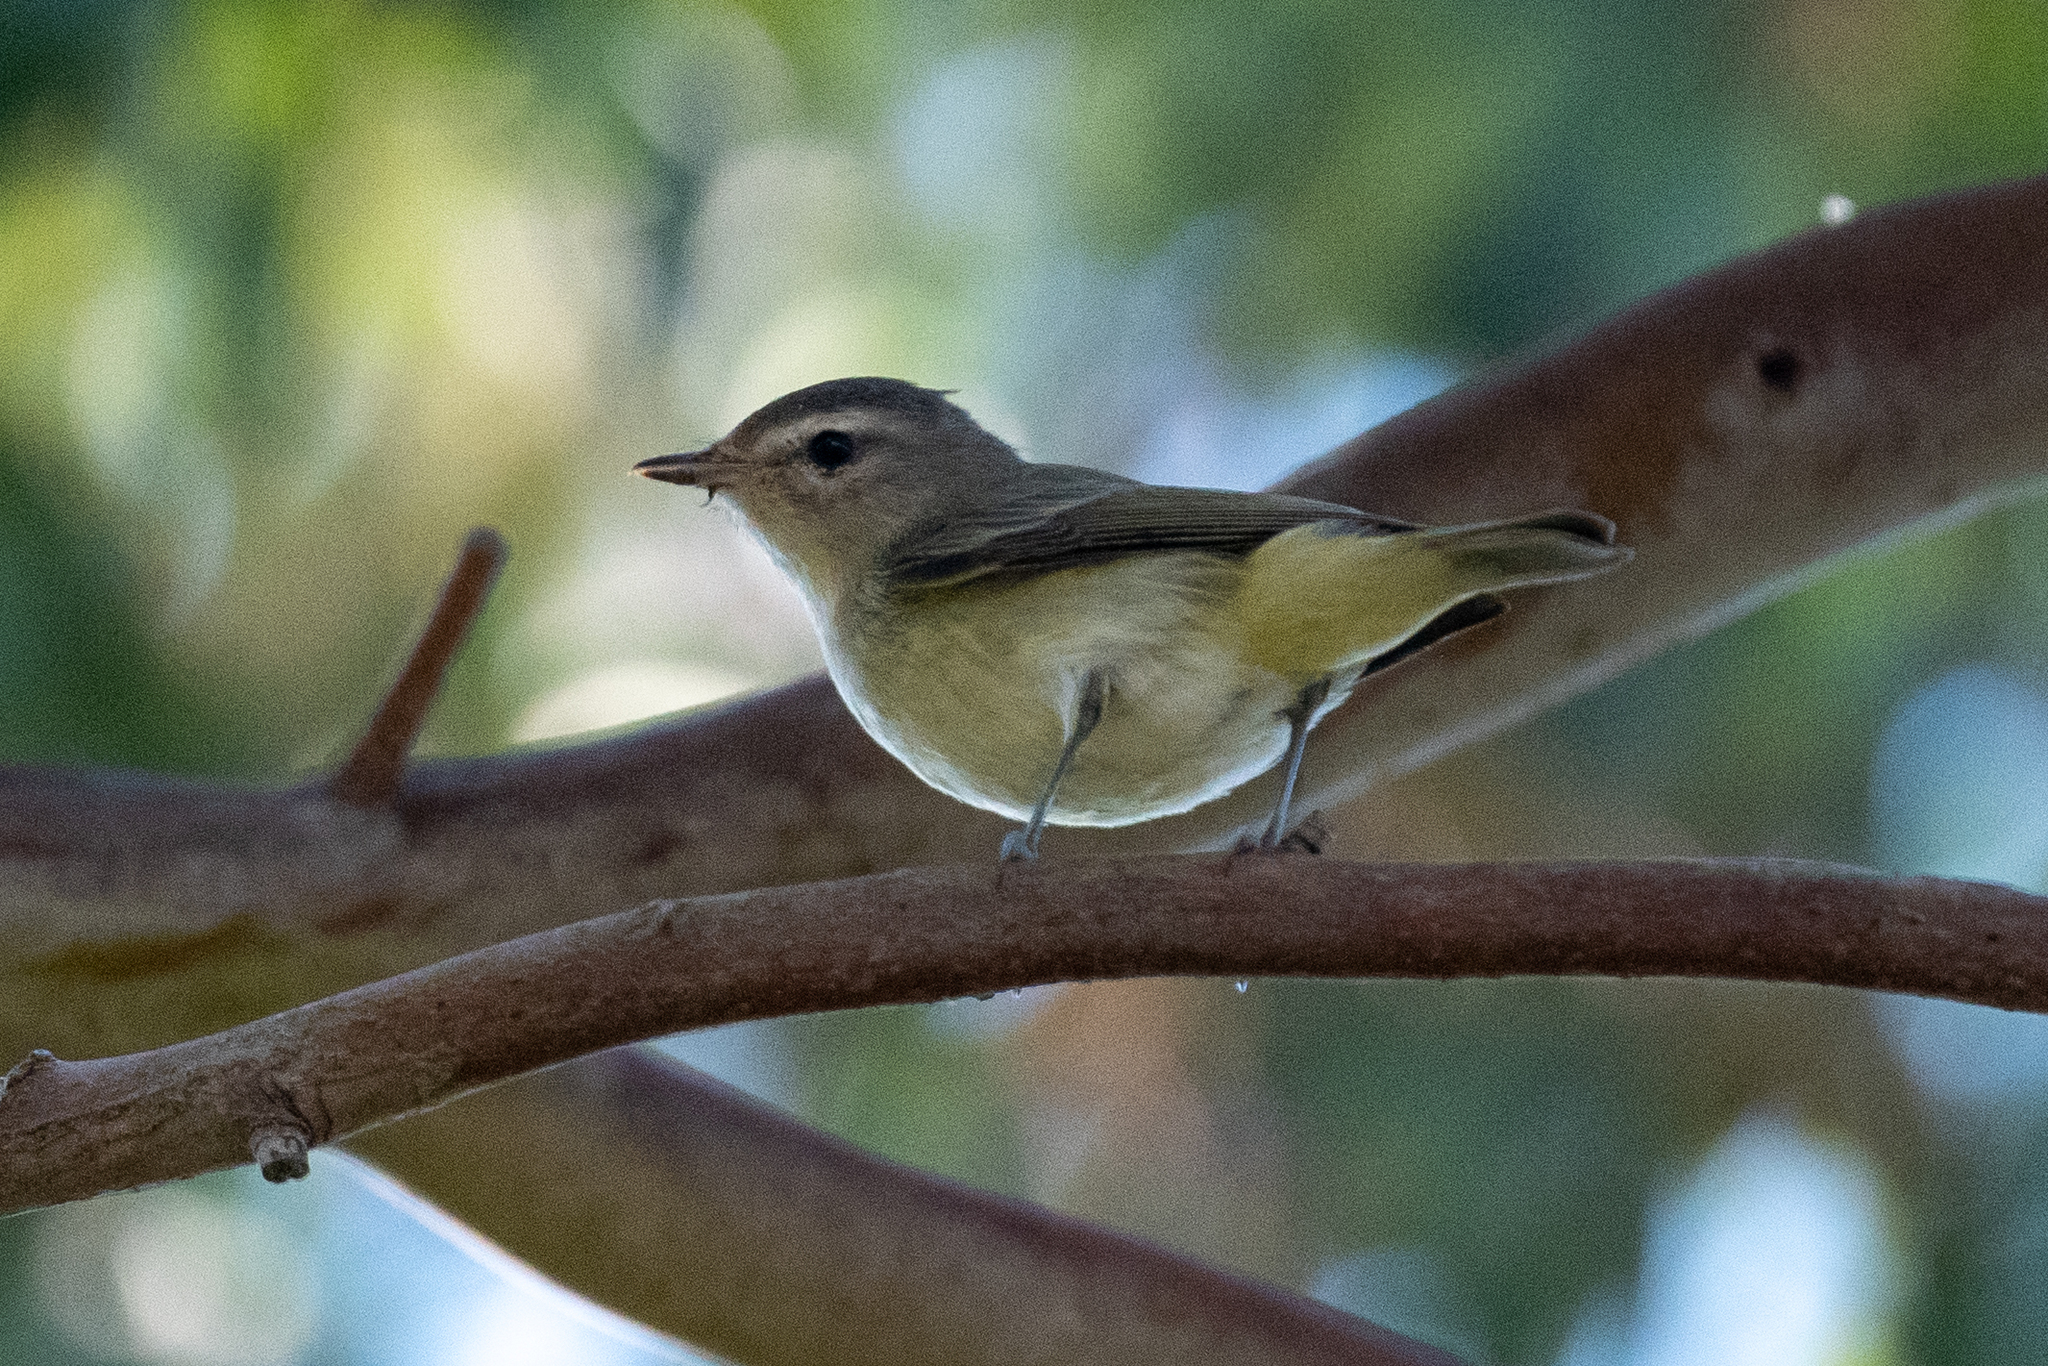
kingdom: Animalia
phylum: Chordata
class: Aves
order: Passeriformes
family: Vireonidae
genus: Vireo
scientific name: Vireo gilvus
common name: Warbling vireo
